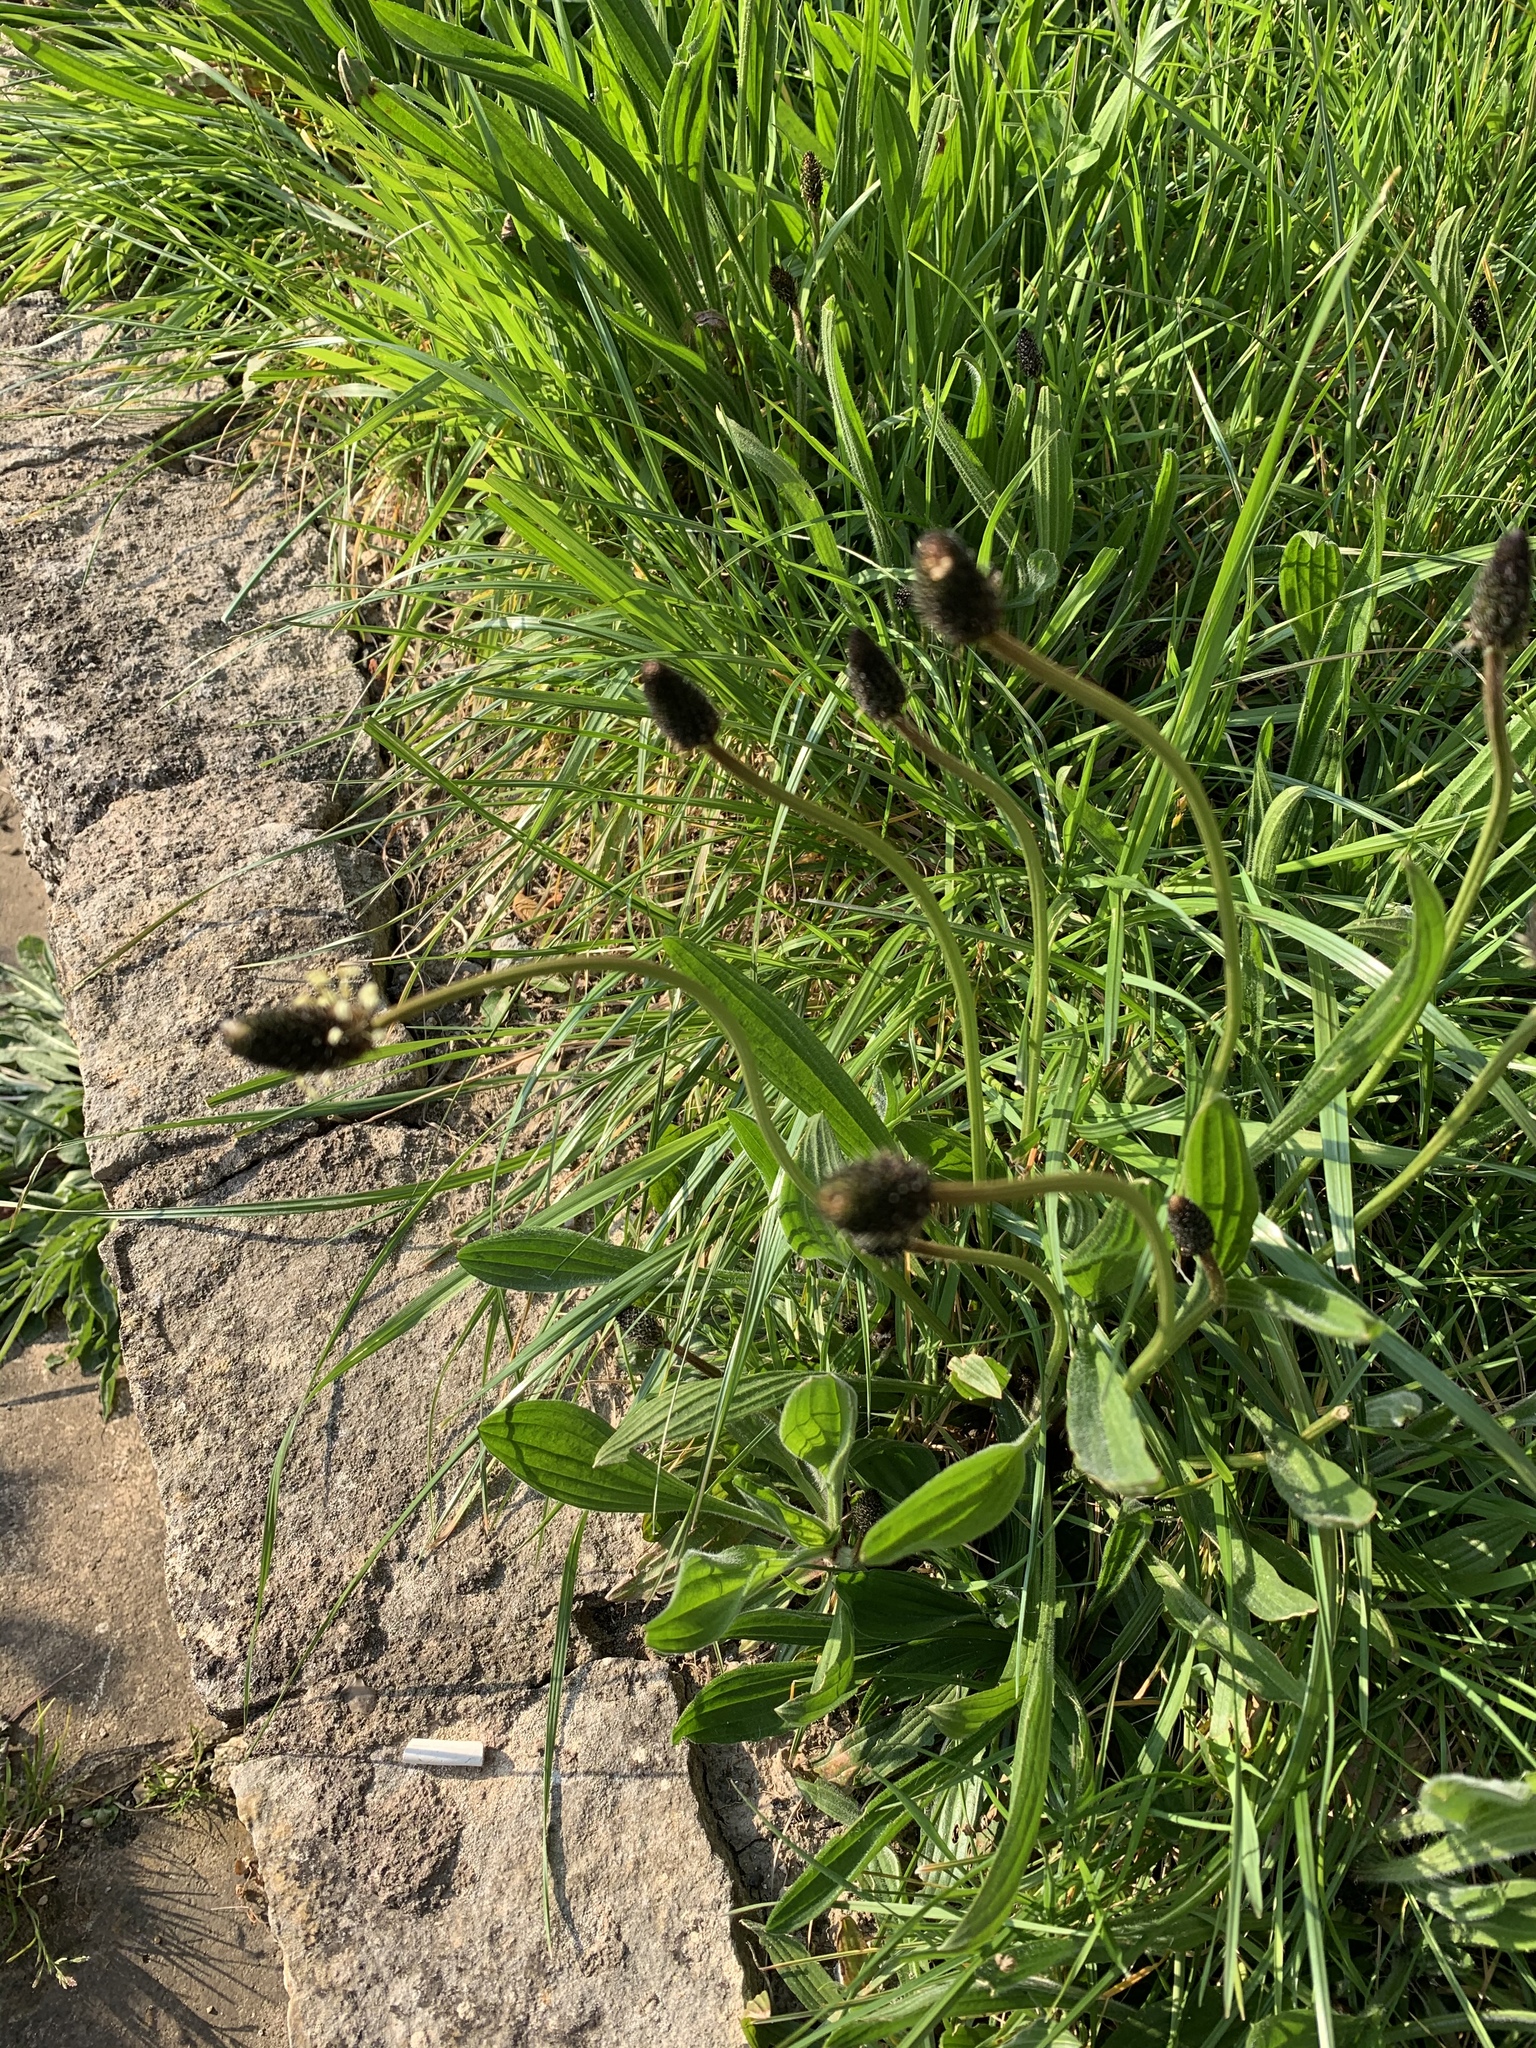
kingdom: Plantae
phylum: Tracheophyta
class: Magnoliopsida
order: Lamiales
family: Plantaginaceae
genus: Plantago
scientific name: Plantago lanceolata
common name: Ribwort plantain
